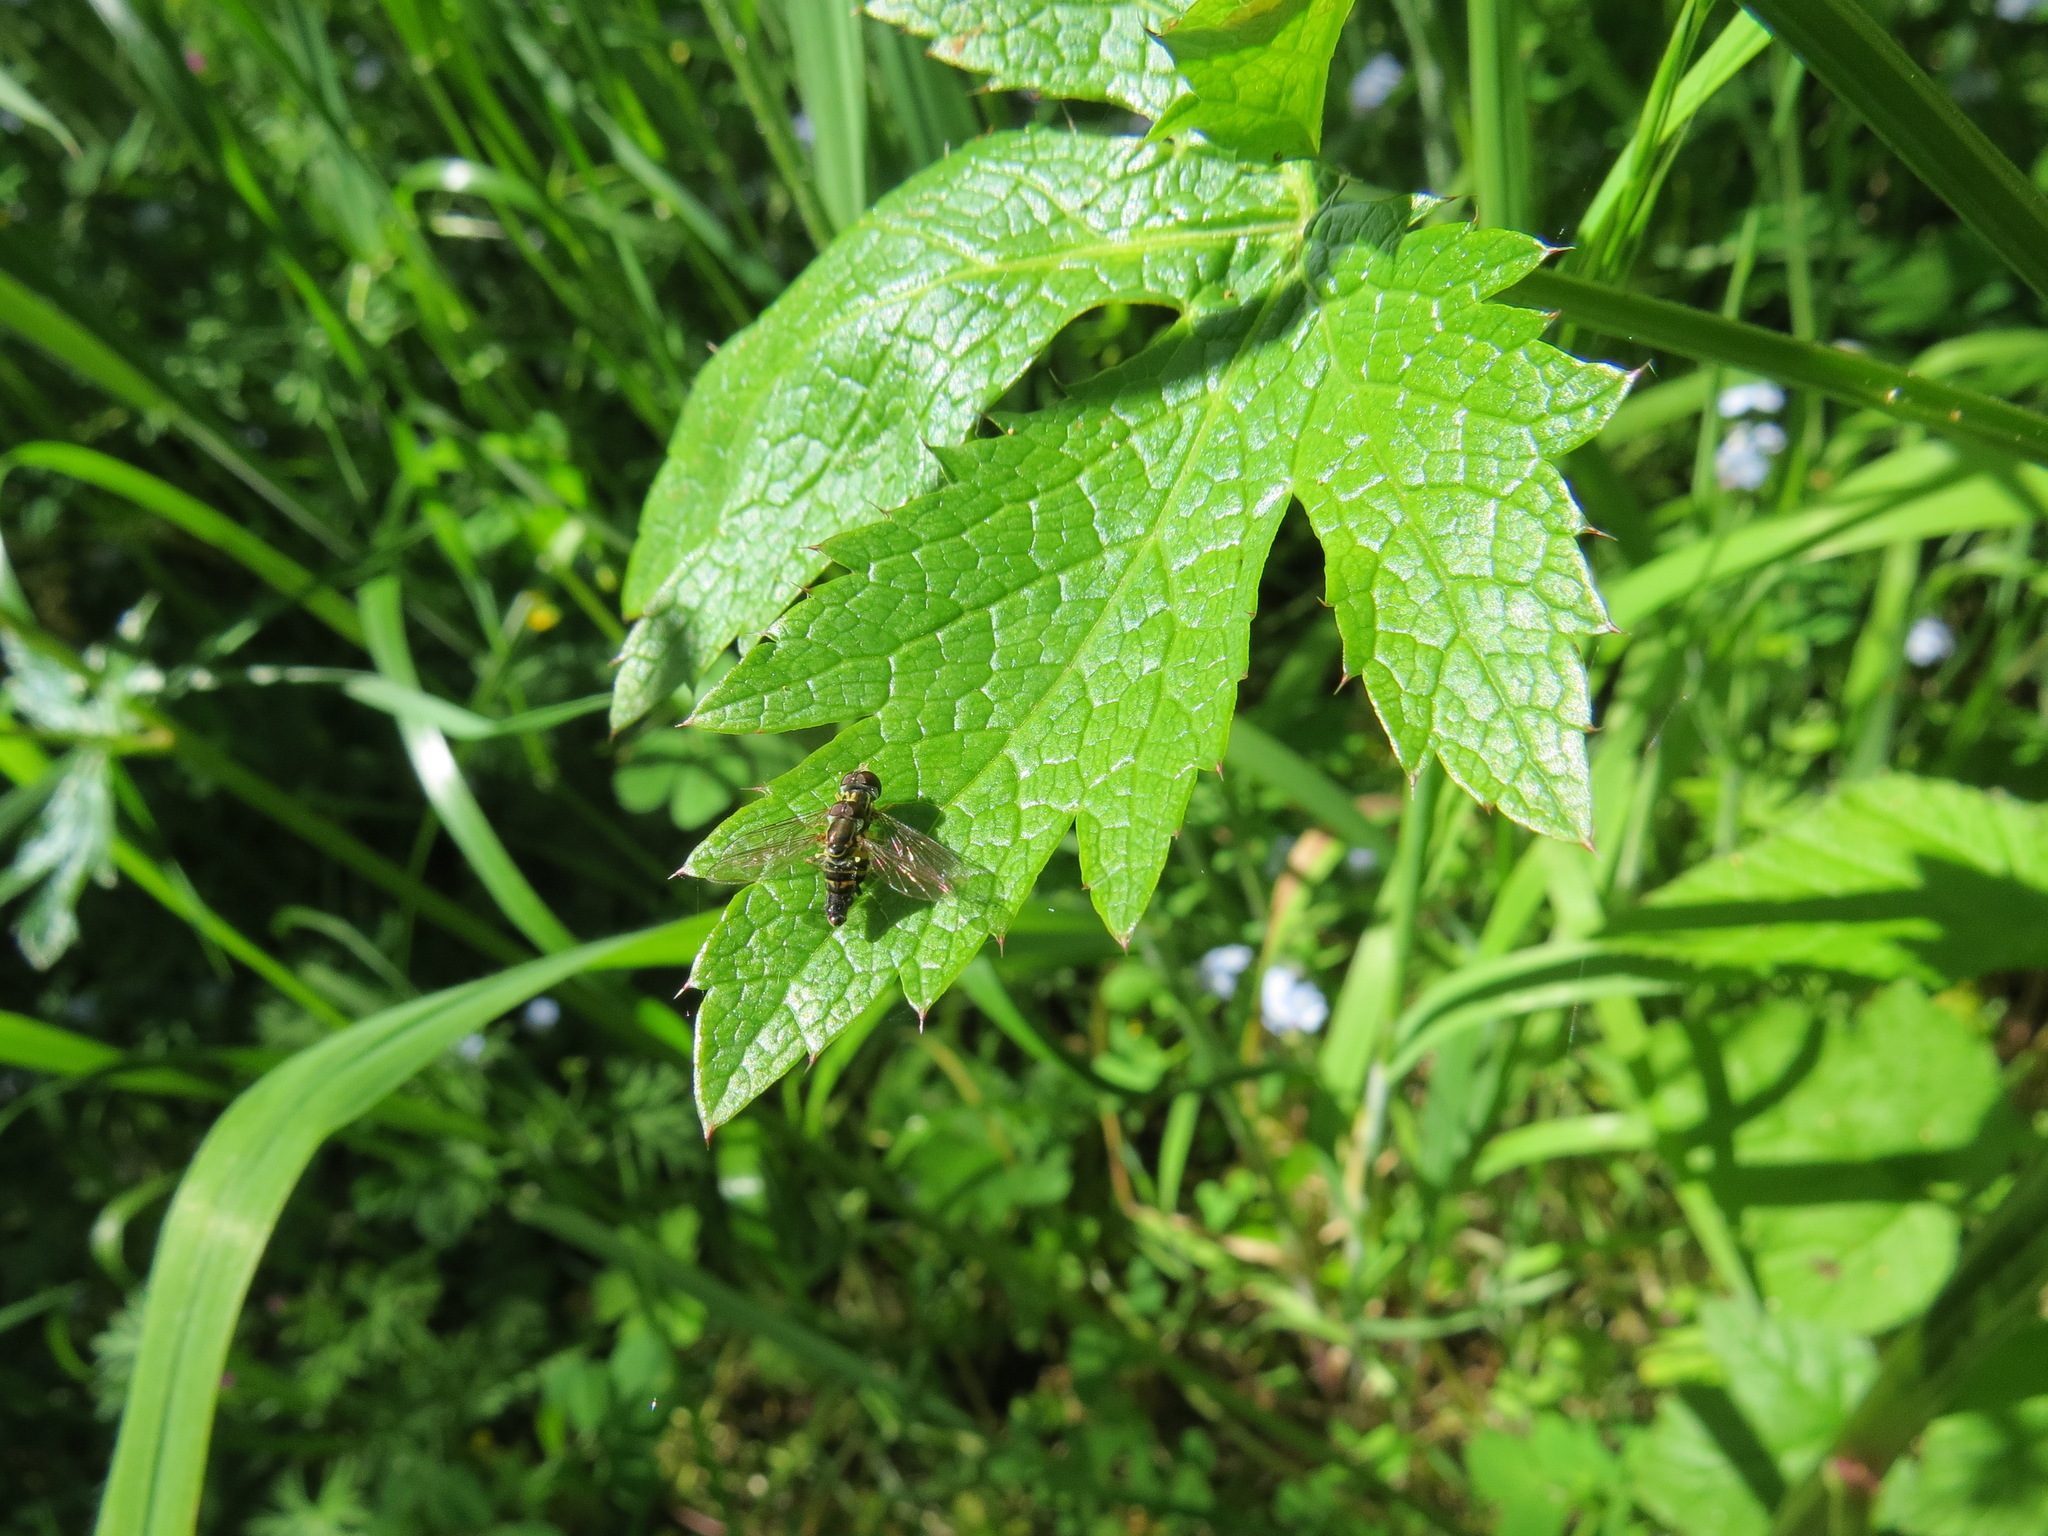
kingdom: Animalia
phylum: Arthropoda
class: Insecta
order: Diptera
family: Syrphidae
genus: Toxomerus
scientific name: Toxomerus occidentalis
